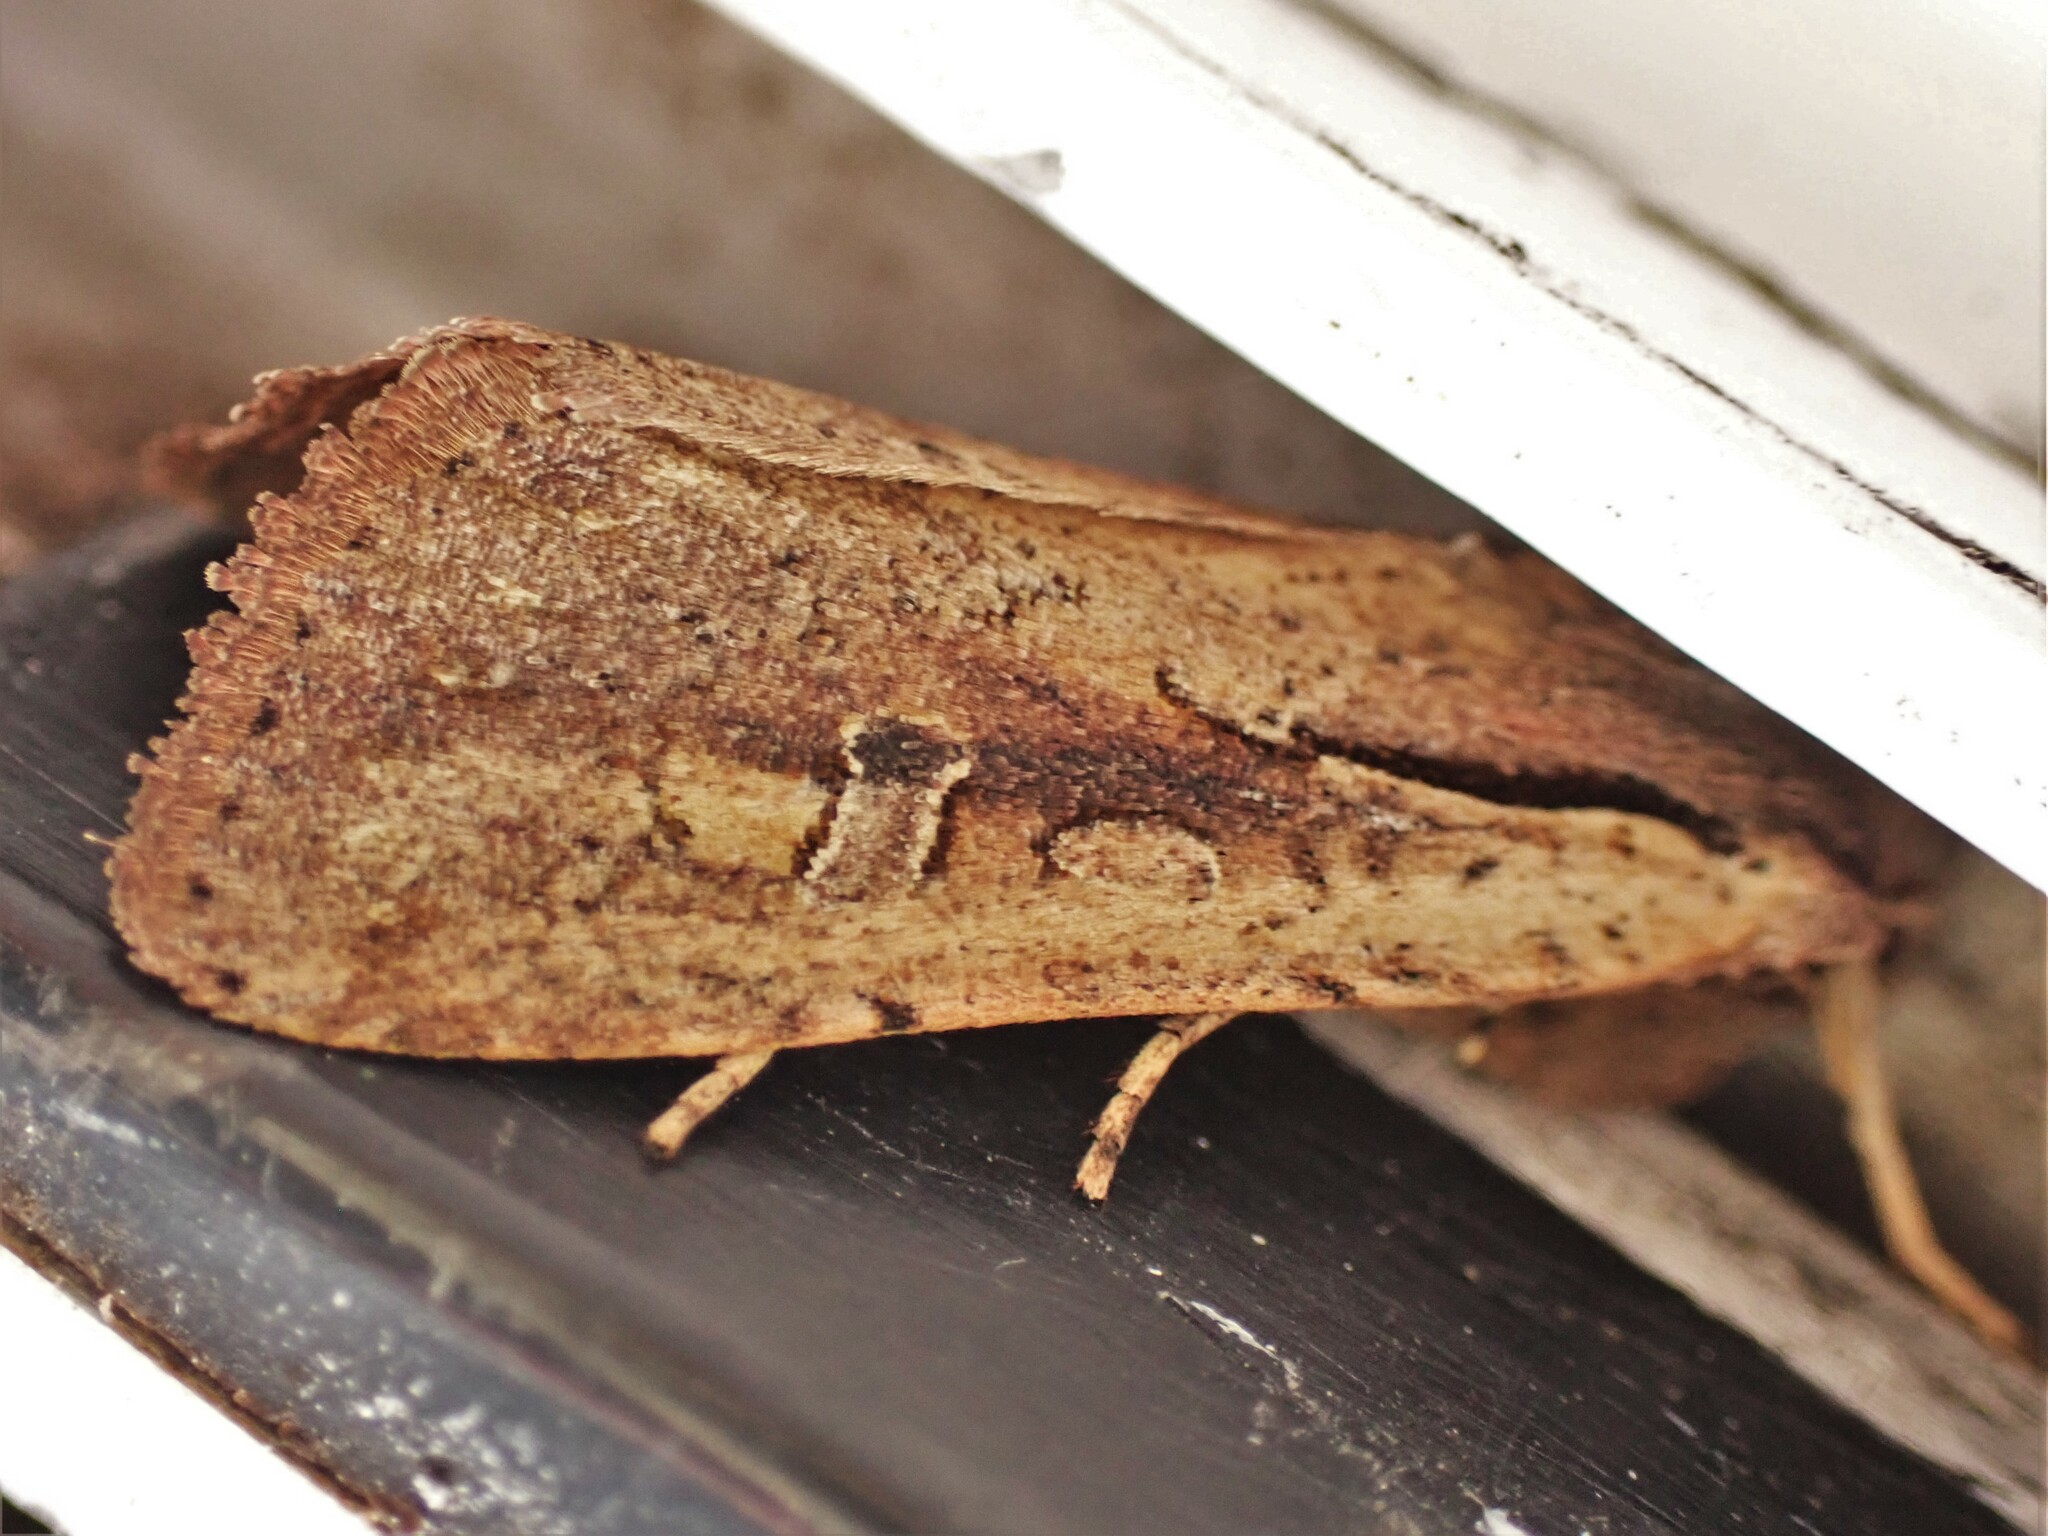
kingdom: Animalia
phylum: Arthropoda
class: Insecta
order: Lepidoptera
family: Noctuidae
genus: Ichneutica
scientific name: Ichneutica atristriga
